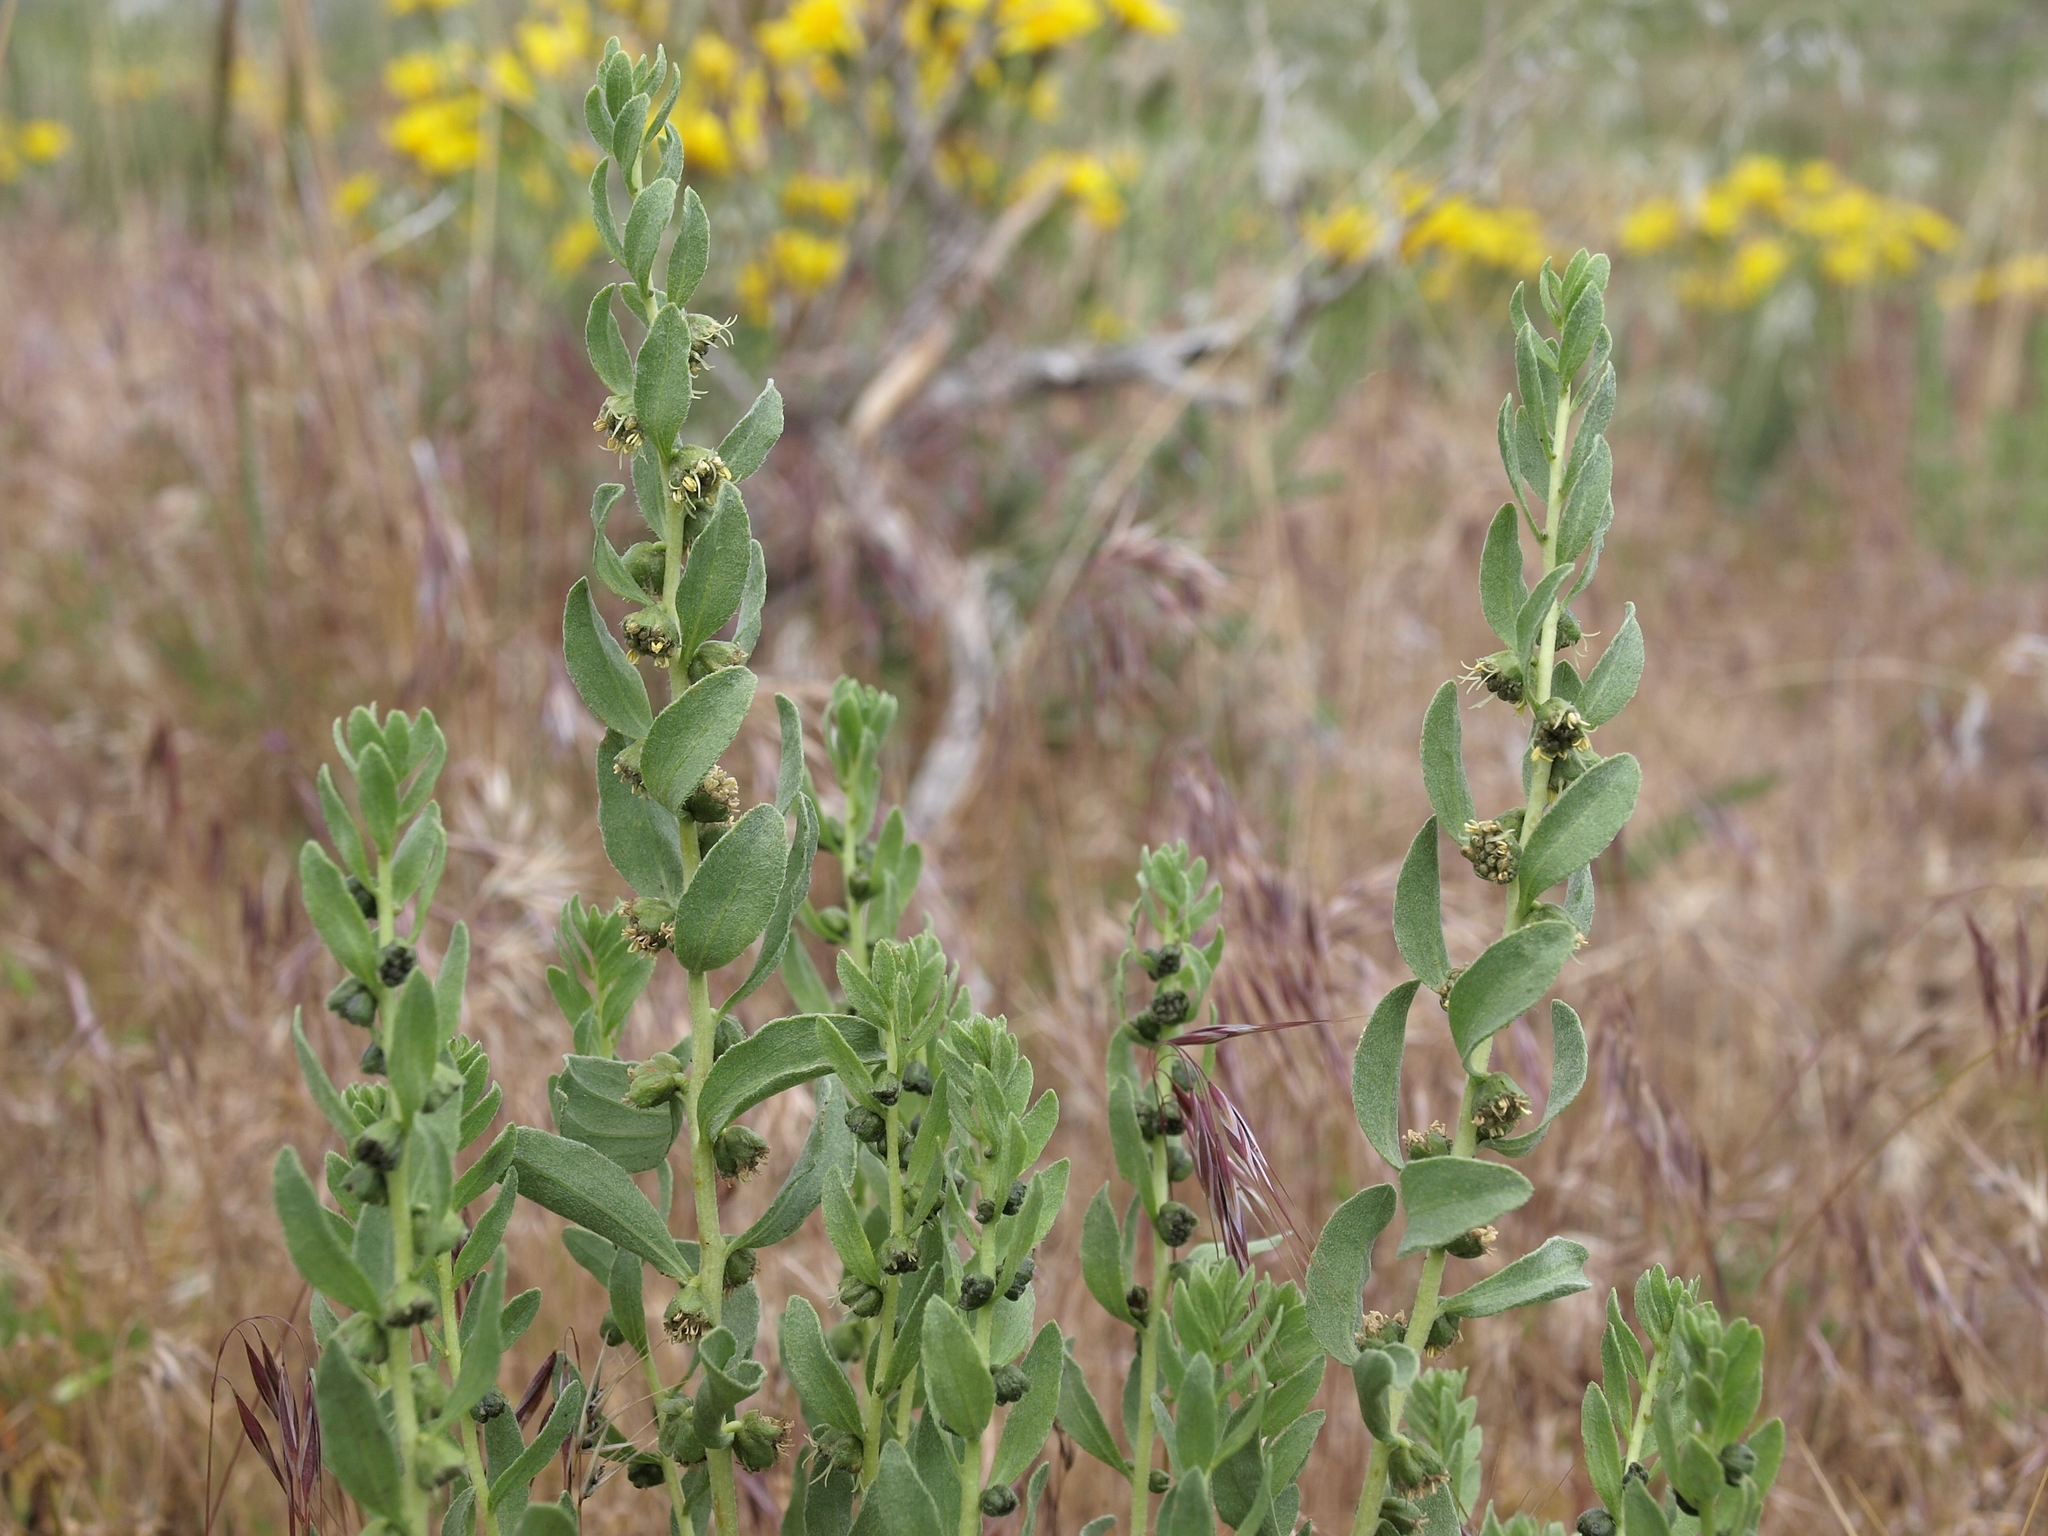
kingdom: Plantae
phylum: Tracheophyta
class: Magnoliopsida
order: Asterales
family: Asteraceae
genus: Iva
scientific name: Iva axillaris
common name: Poverty sumpweed
